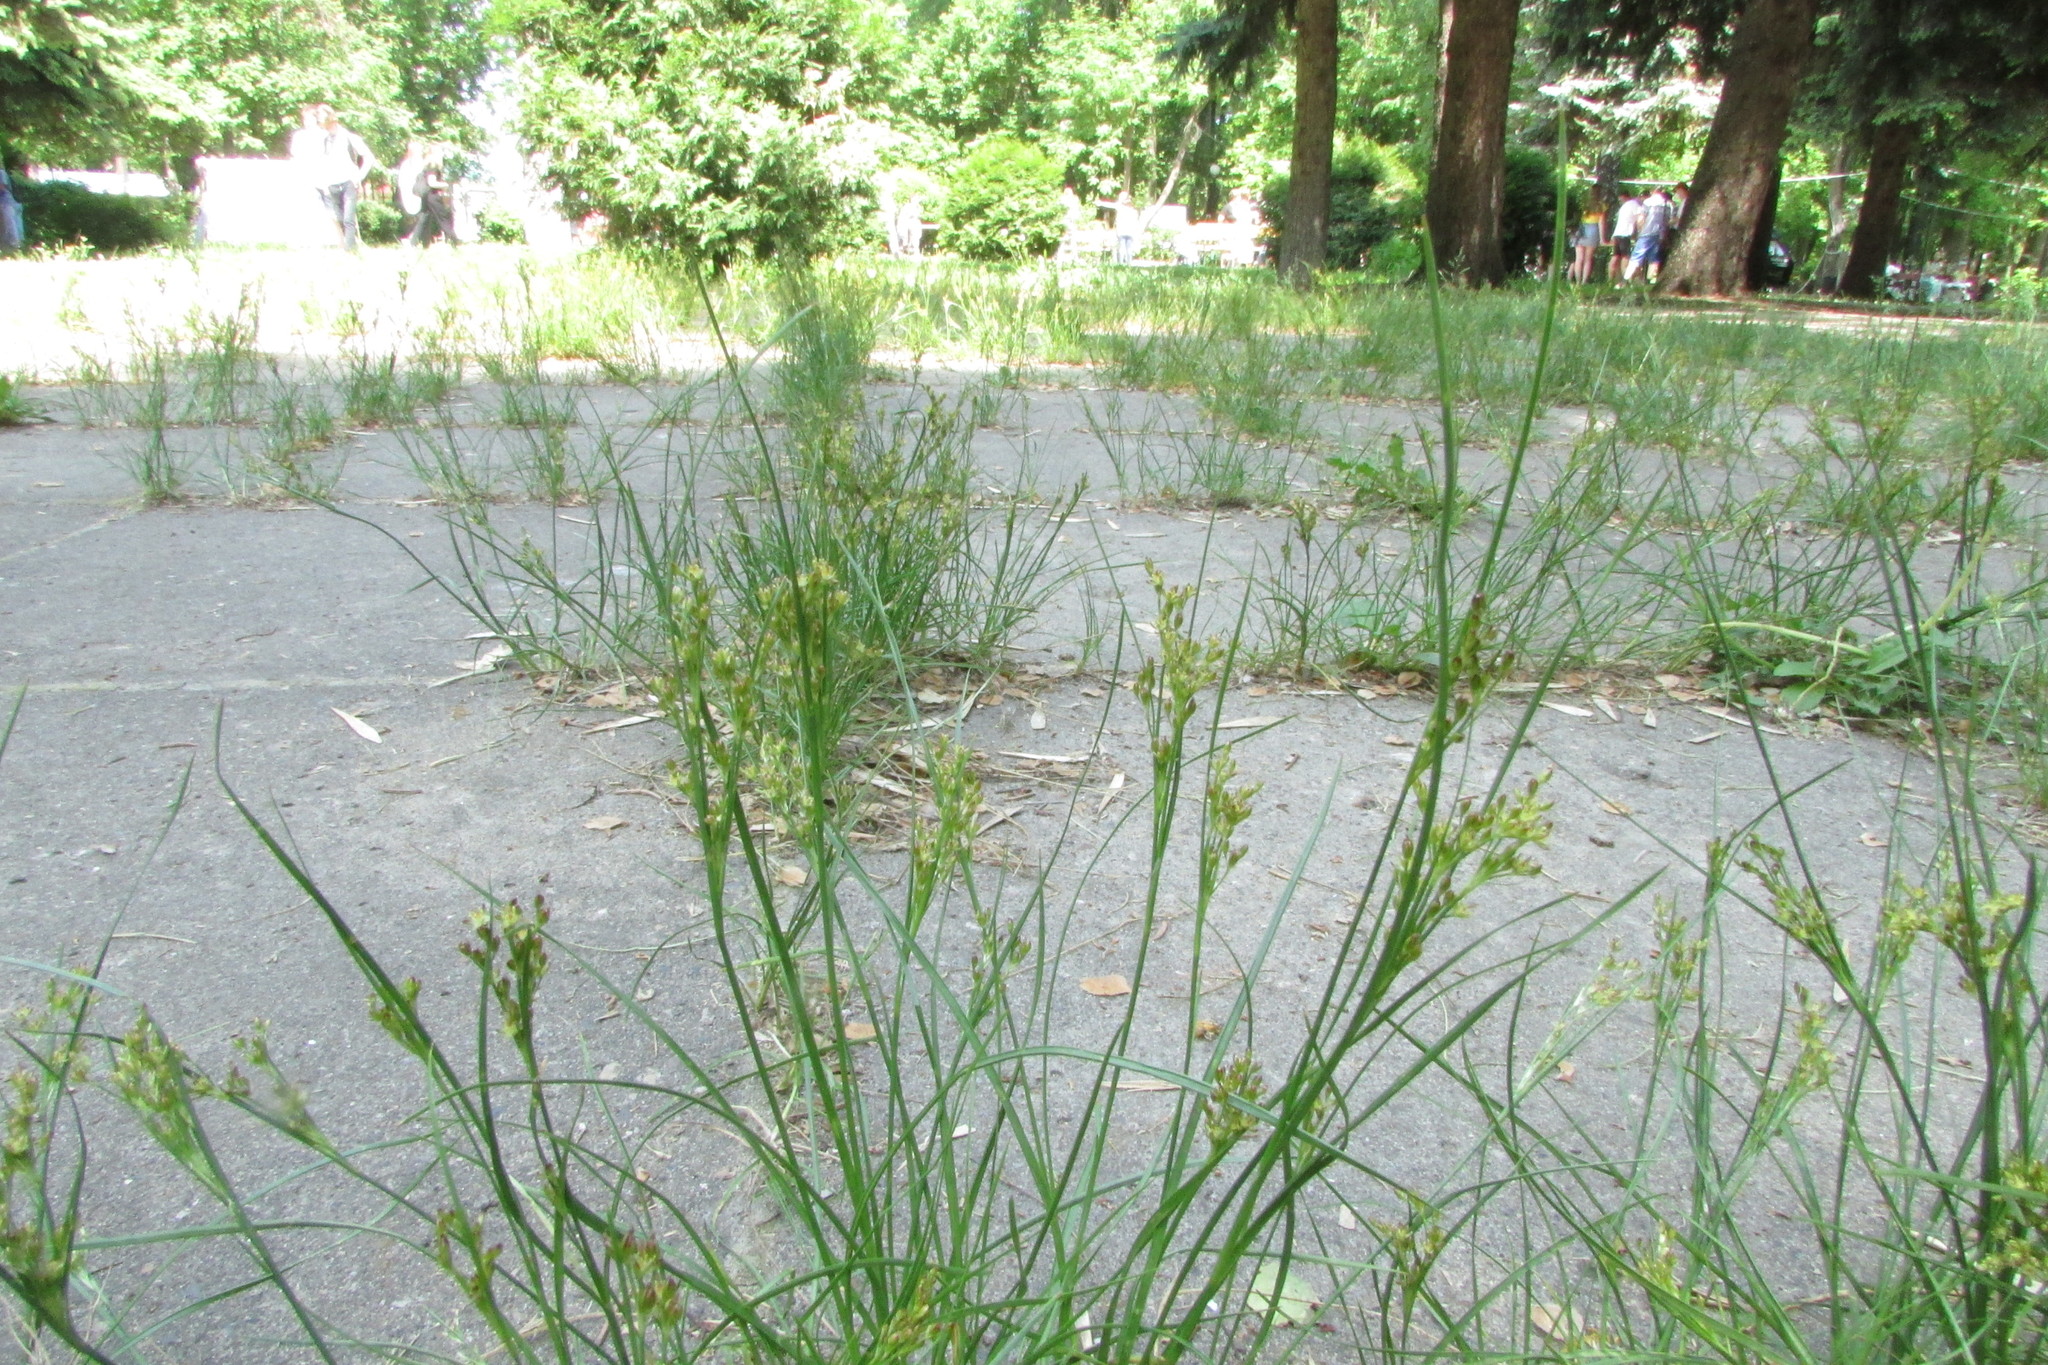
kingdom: Plantae
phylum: Tracheophyta
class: Liliopsida
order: Poales
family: Juncaceae
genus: Juncus
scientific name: Juncus compressus
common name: Round-fruited rush
